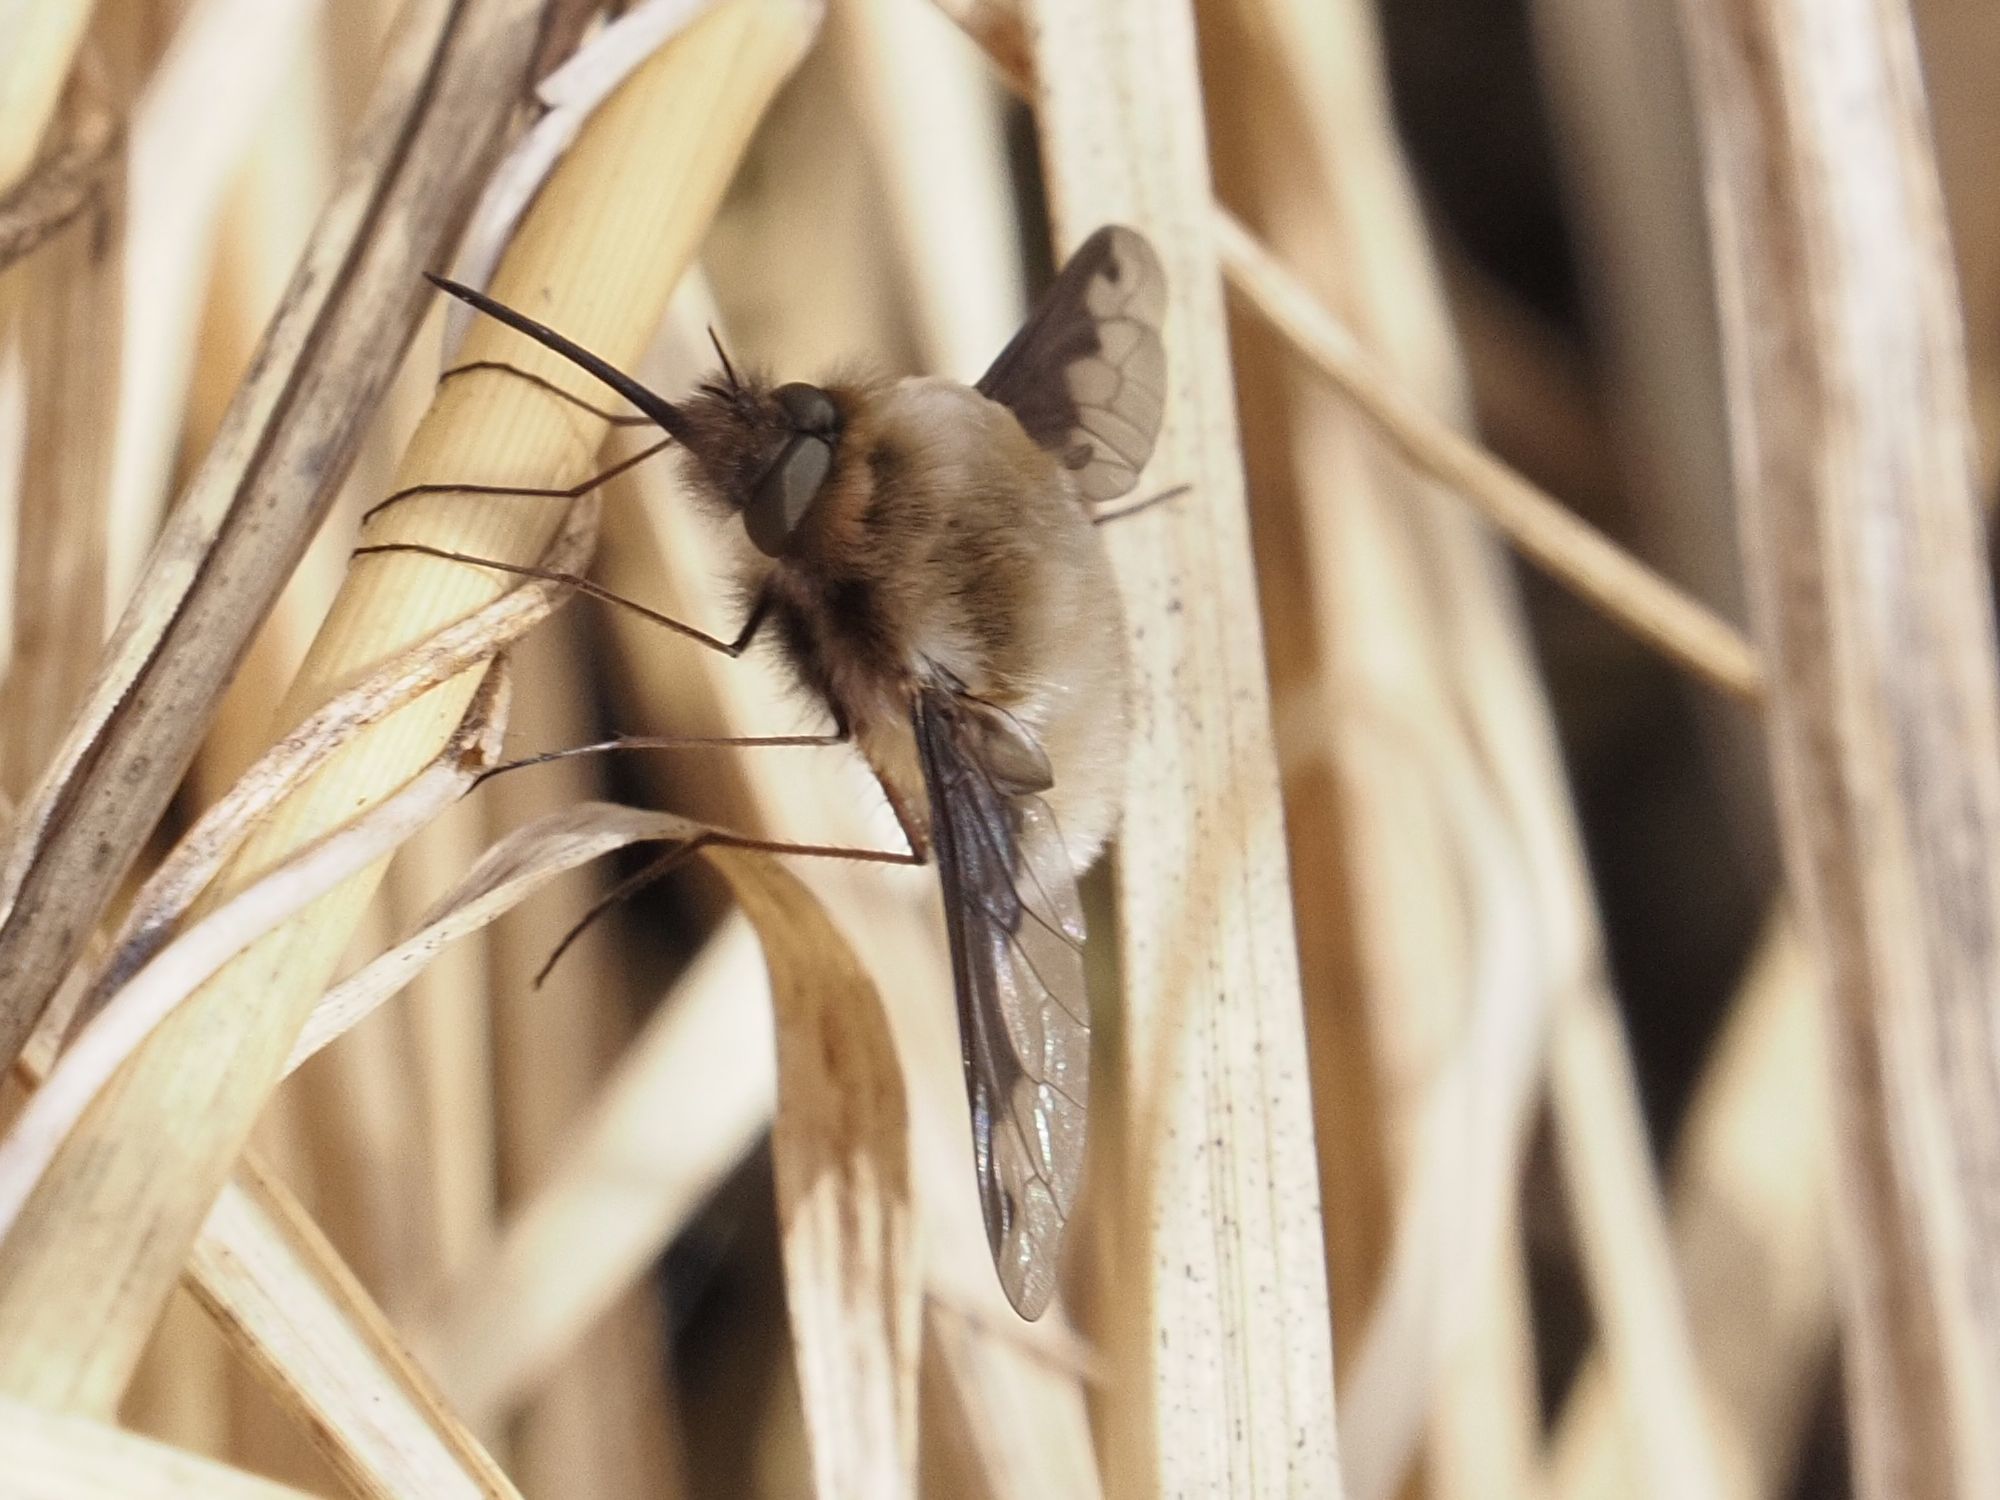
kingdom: Animalia
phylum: Arthropoda
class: Insecta
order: Diptera
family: Bombyliidae
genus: Bombylius
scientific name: Bombylius major
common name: Bee fly
